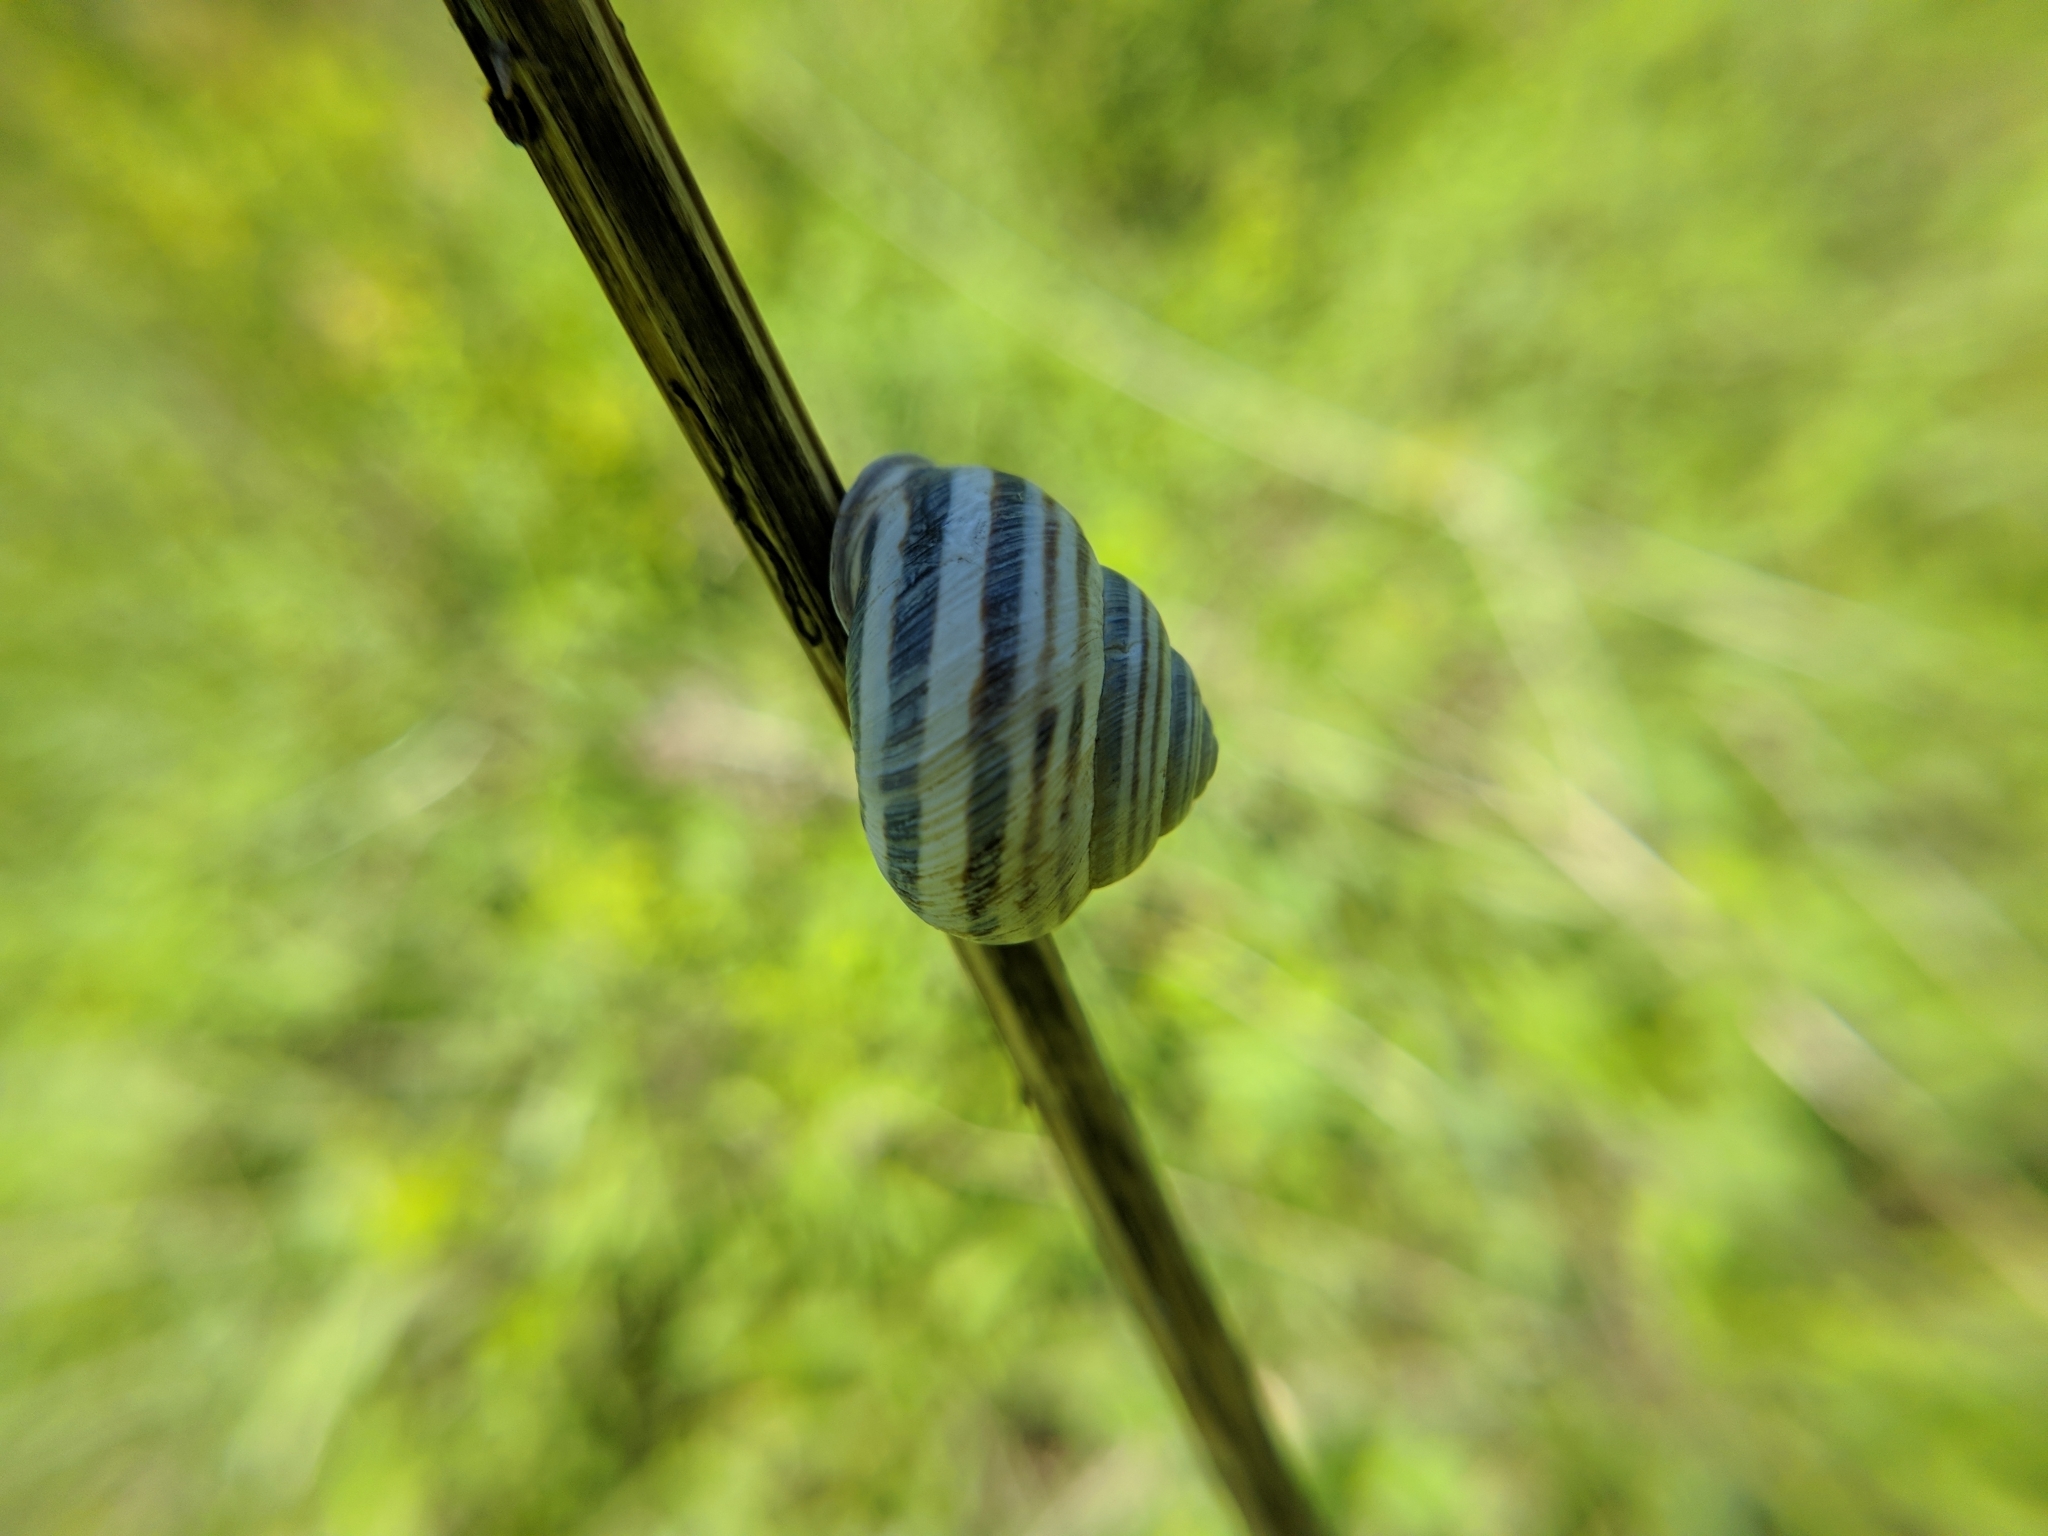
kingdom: Animalia
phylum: Mollusca
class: Gastropoda
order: Stylommatophora
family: Helicidae
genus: Caucasotachea
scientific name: Caucasotachea vindobonensis
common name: European helicid land snail
